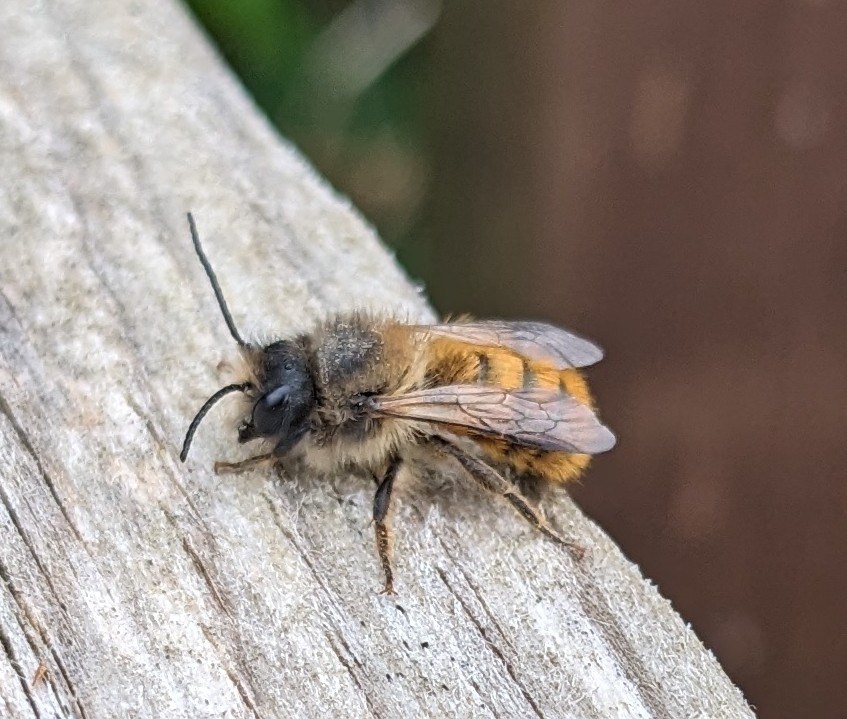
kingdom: Animalia
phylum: Arthropoda
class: Insecta
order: Hymenoptera
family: Megachilidae
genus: Osmia
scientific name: Osmia bicornis
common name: Red mason bee
